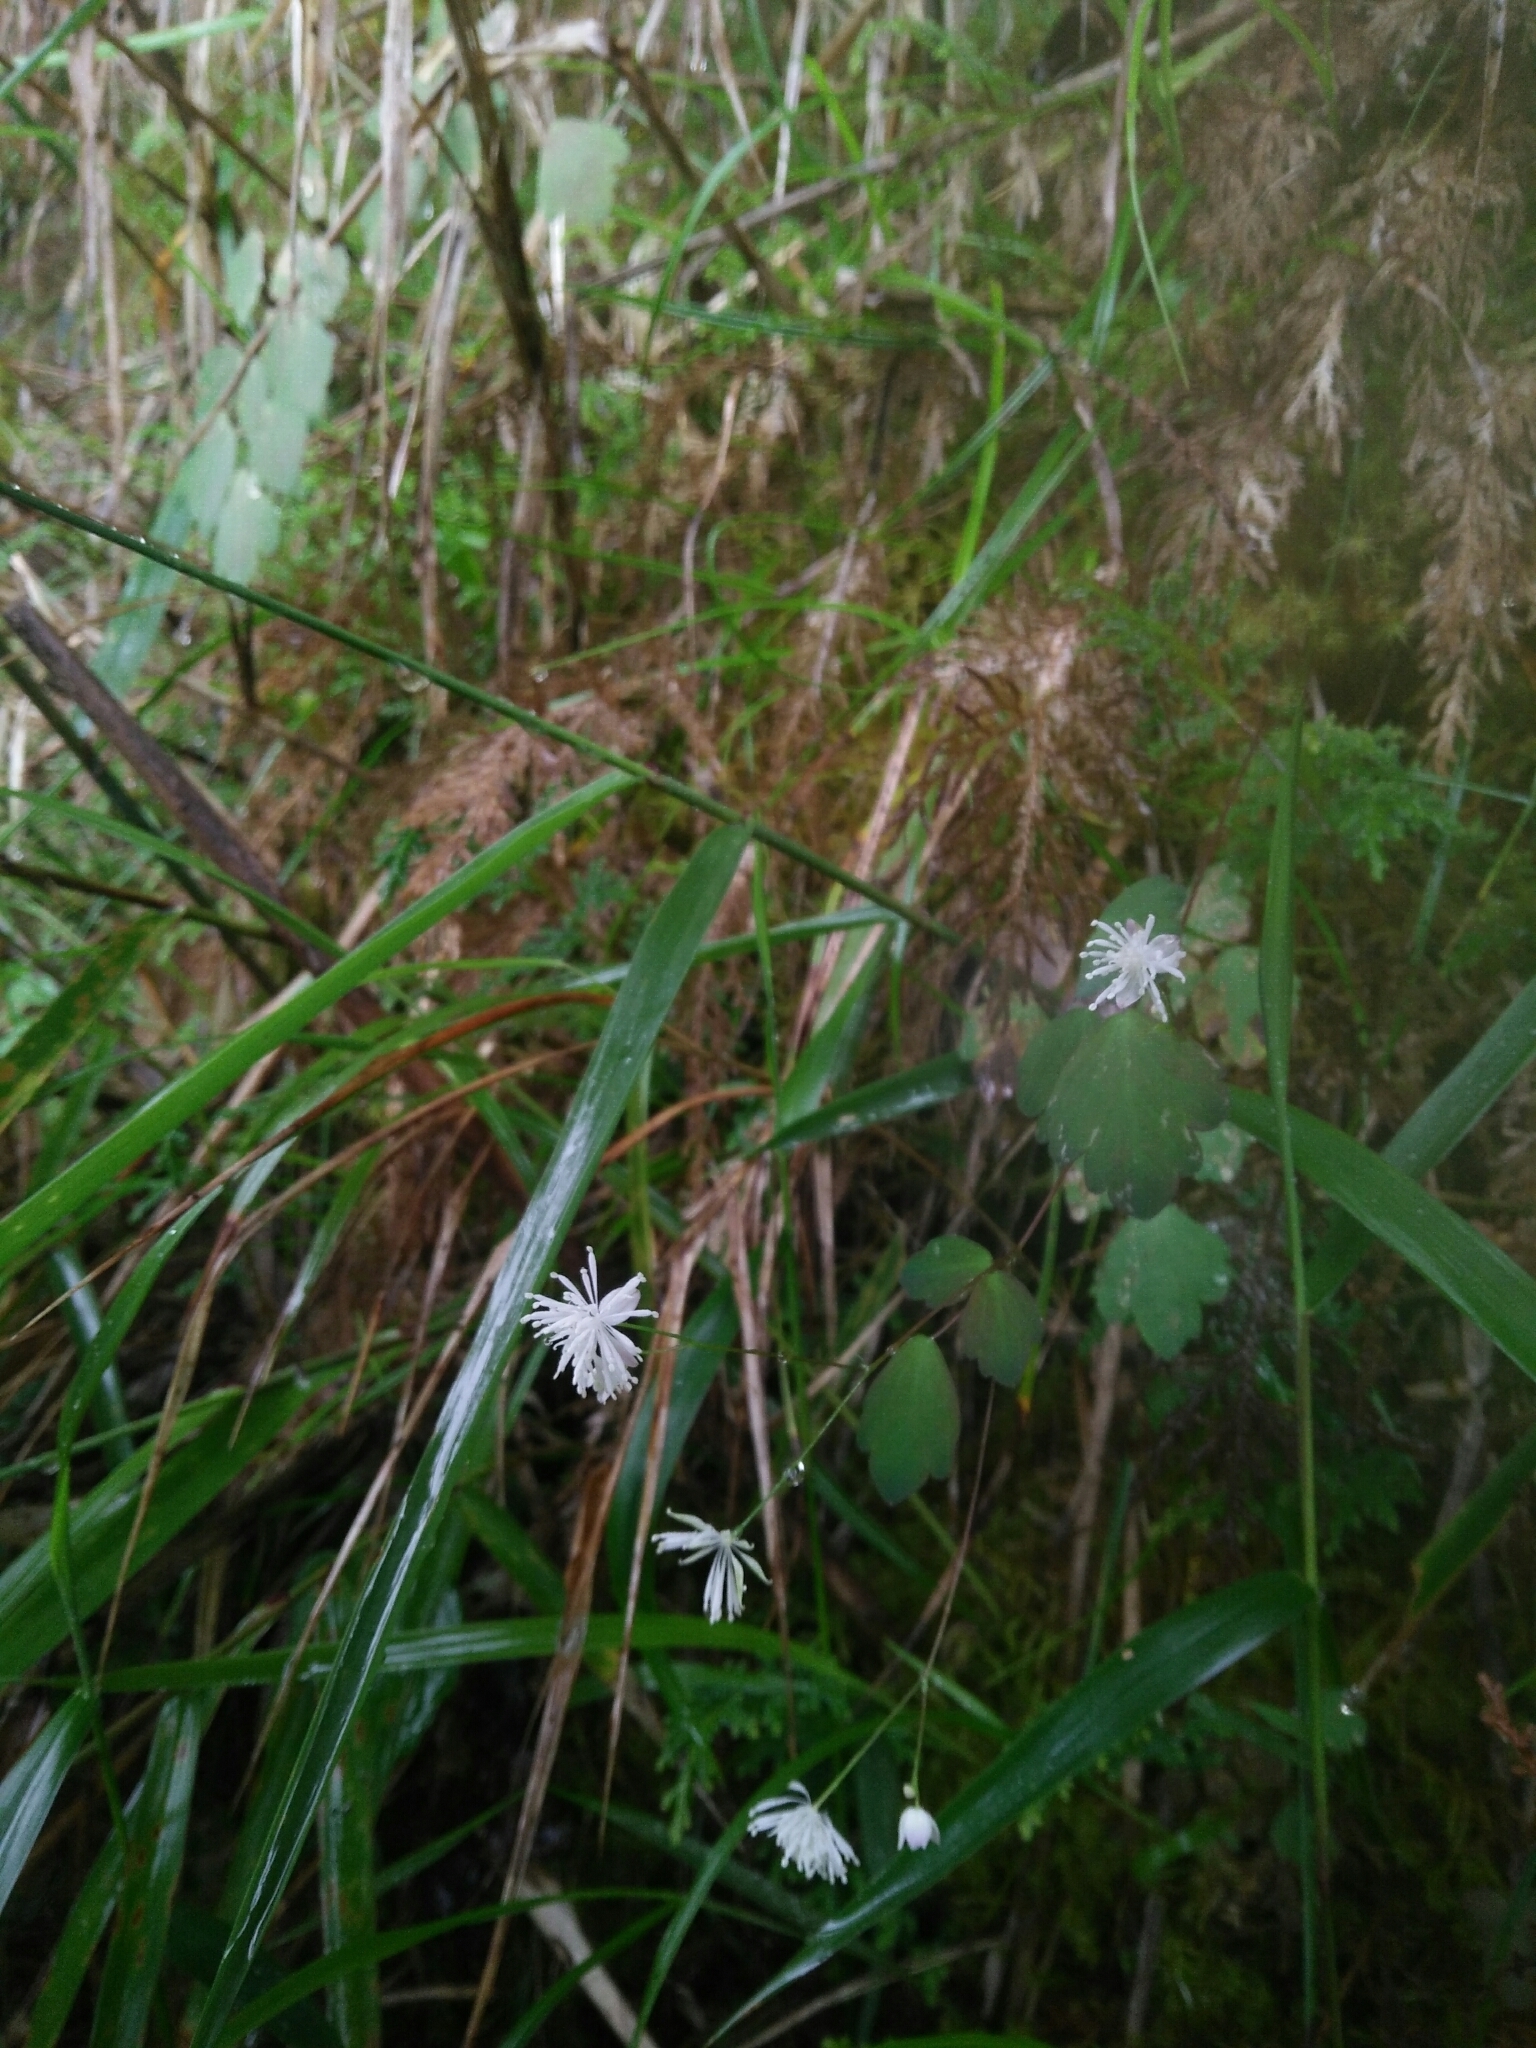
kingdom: Plantae
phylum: Tracheophyta
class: Magnoliopsida
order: Ranunculales
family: Ranunculaceae
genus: Thalictrum
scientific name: Thalictrum urbaini
